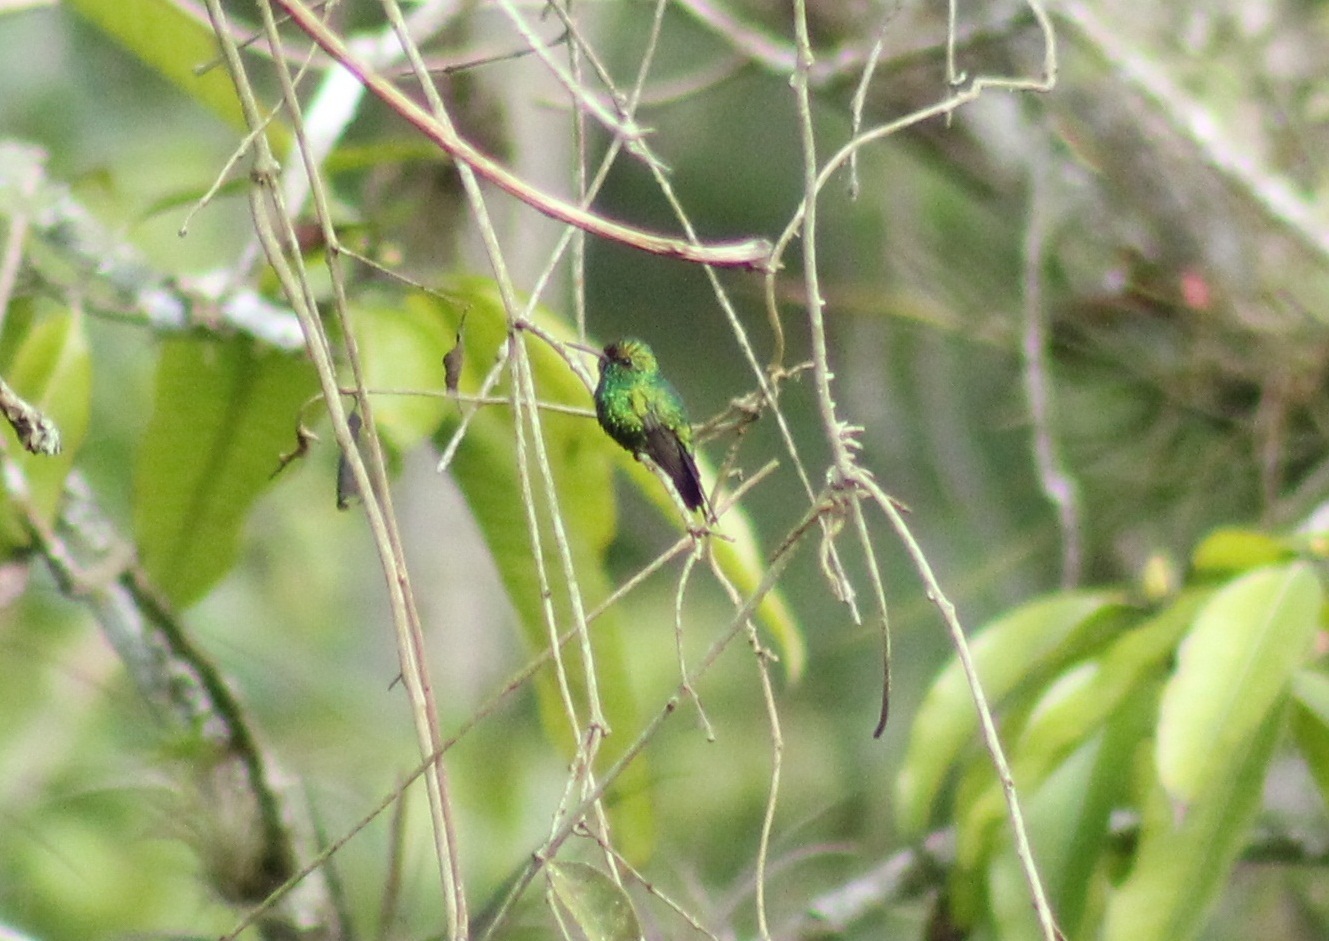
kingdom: Animalia
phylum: Chordata
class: Aves
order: Apodiformes
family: Trochilidae
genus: Cynanthus
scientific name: Cynanthus canivetii
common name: Canivet's emerald
